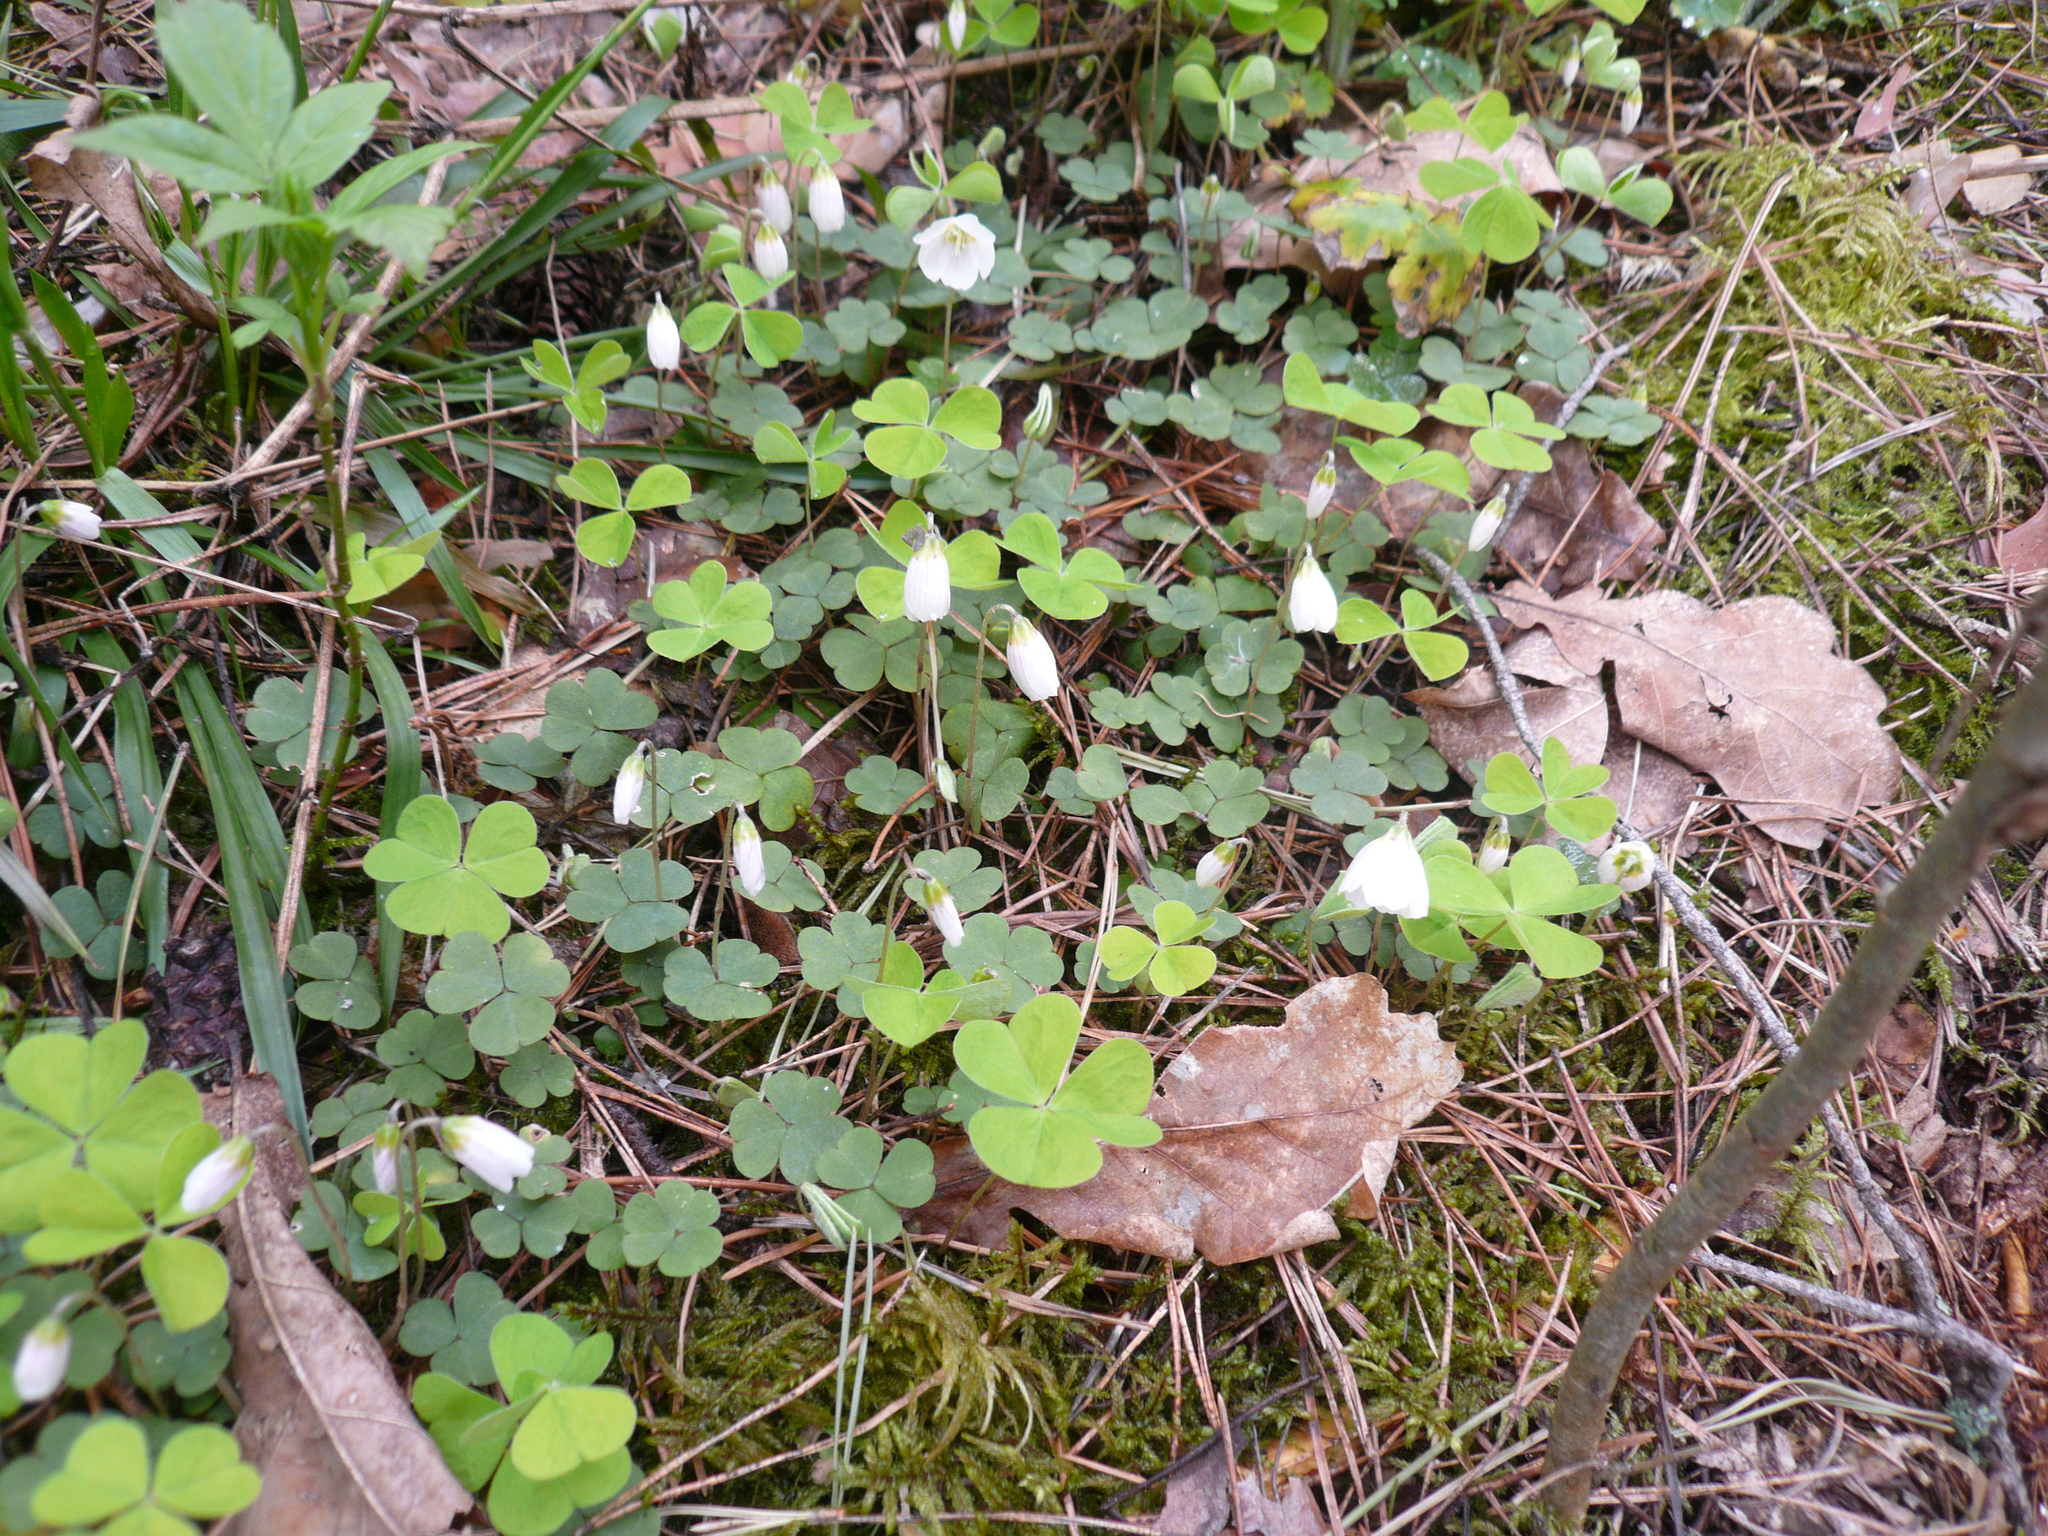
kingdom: Plantae
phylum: Tracheophyta
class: Magnoliopsida
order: Oxalidales
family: Oxalidaceae
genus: Oxalis
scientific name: Oxalis acetosella
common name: Wood-sorrel
